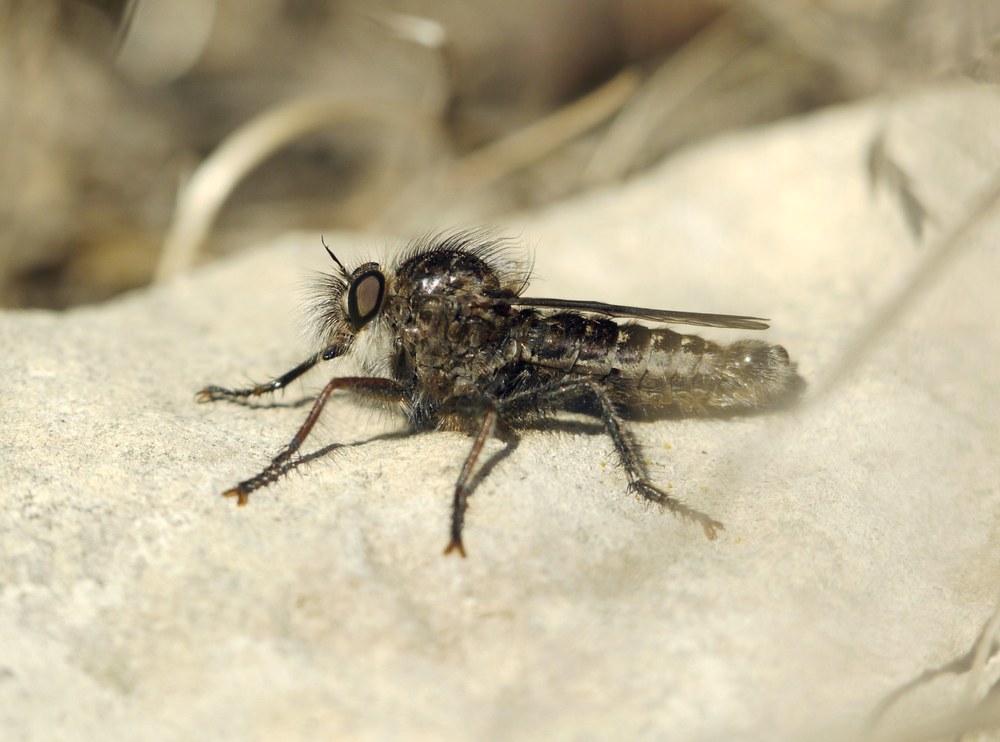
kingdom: Animalia
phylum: Arthropoda
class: Insecta
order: Diptera
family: Asilidae
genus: Erax
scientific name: Erax crassicauda
